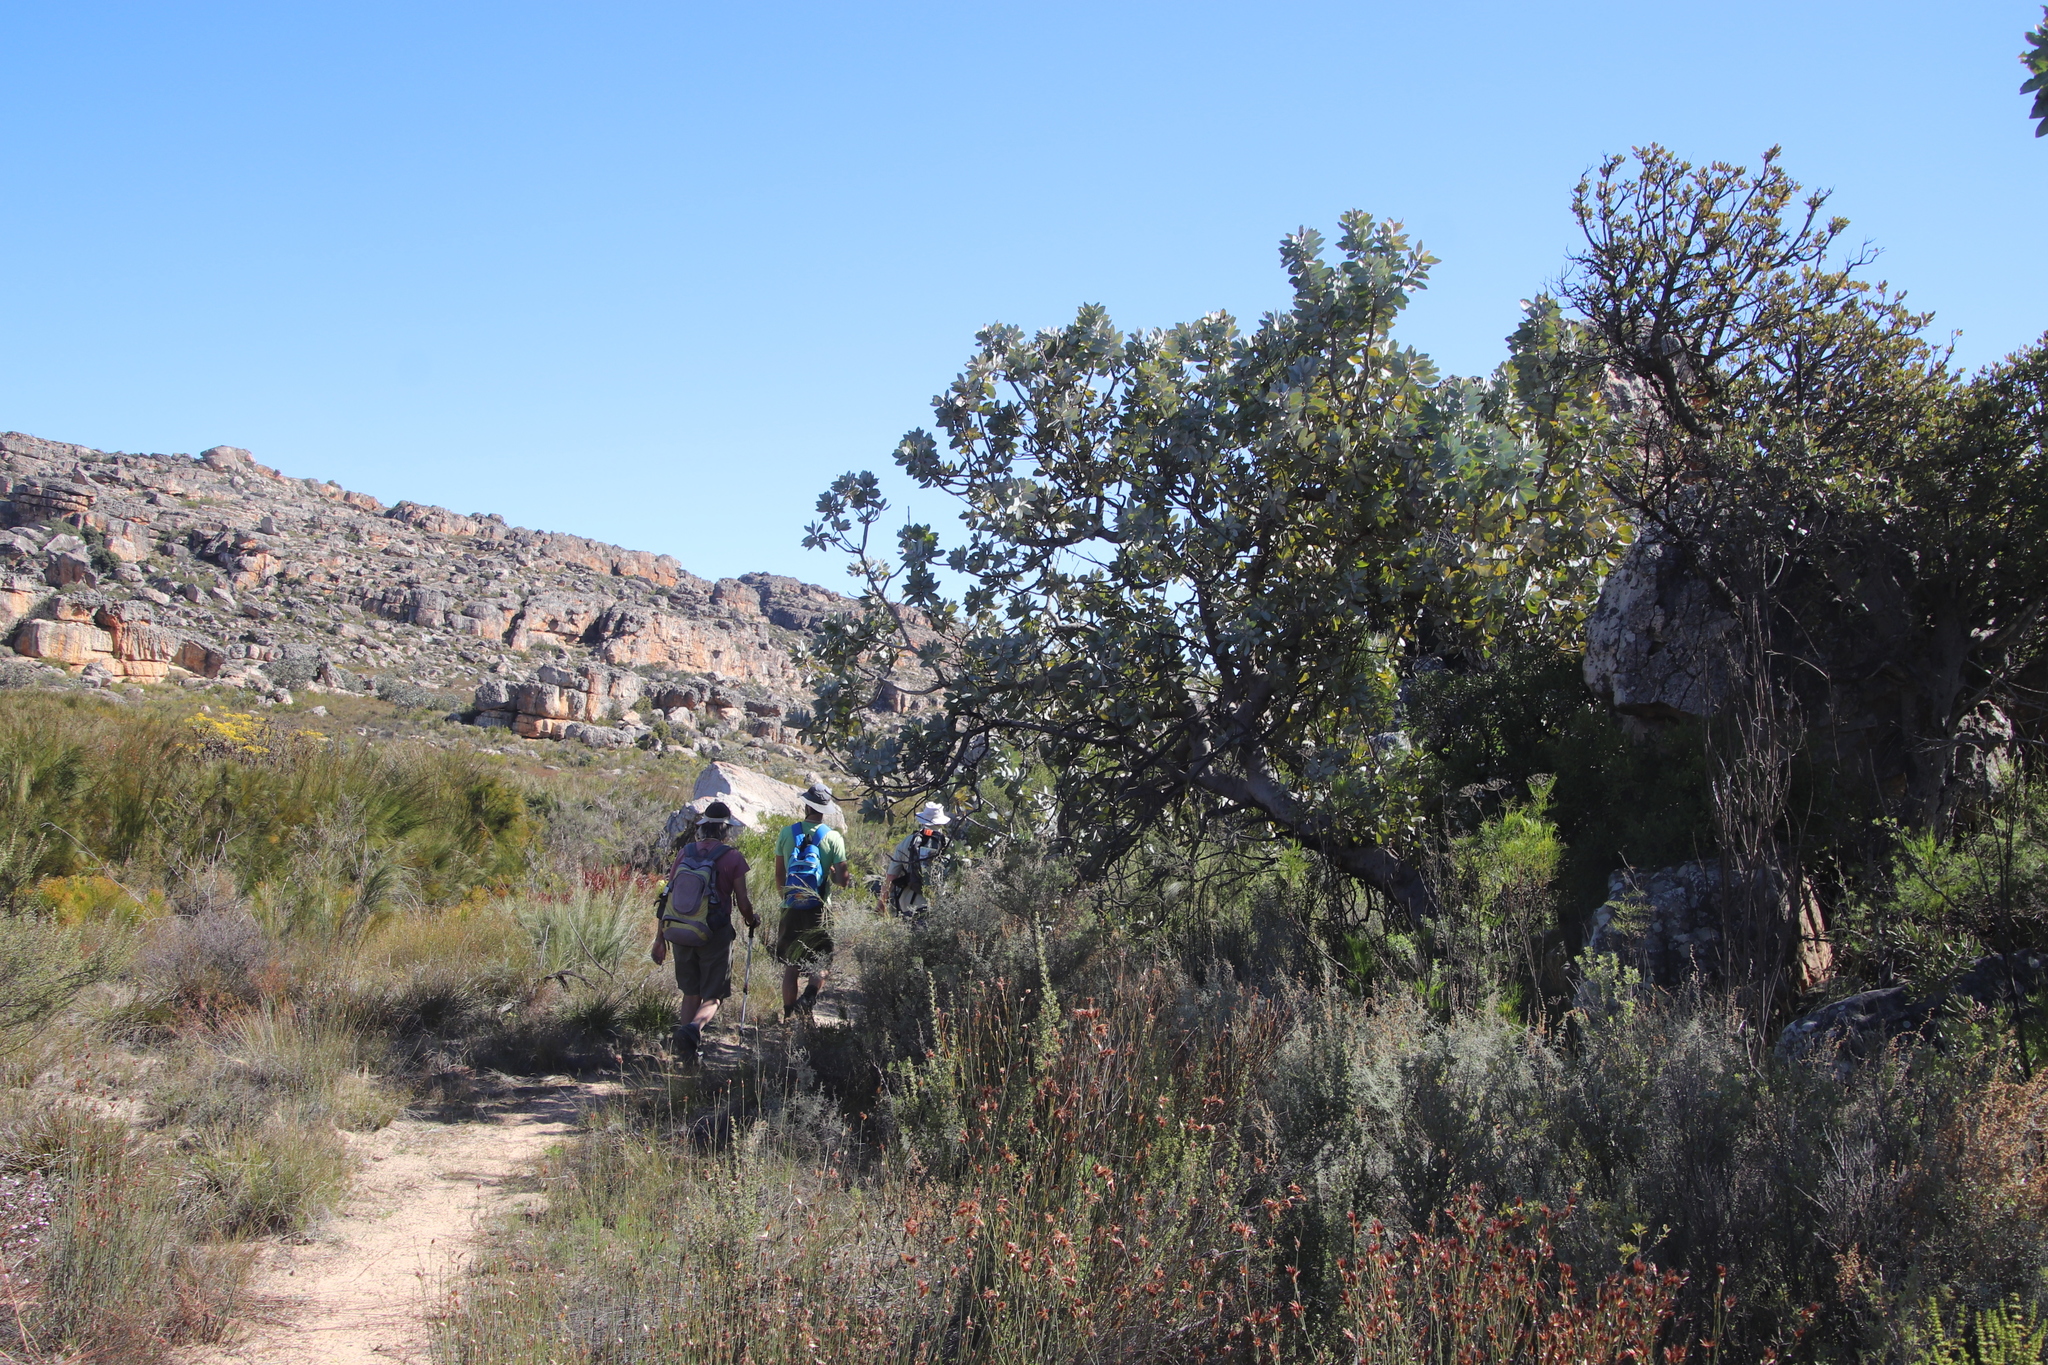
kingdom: Plantae
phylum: Tracheophyta
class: Magnoliopsida
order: Proteales
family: Proteaceae
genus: Protea
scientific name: Protea nitida
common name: Tree protea
